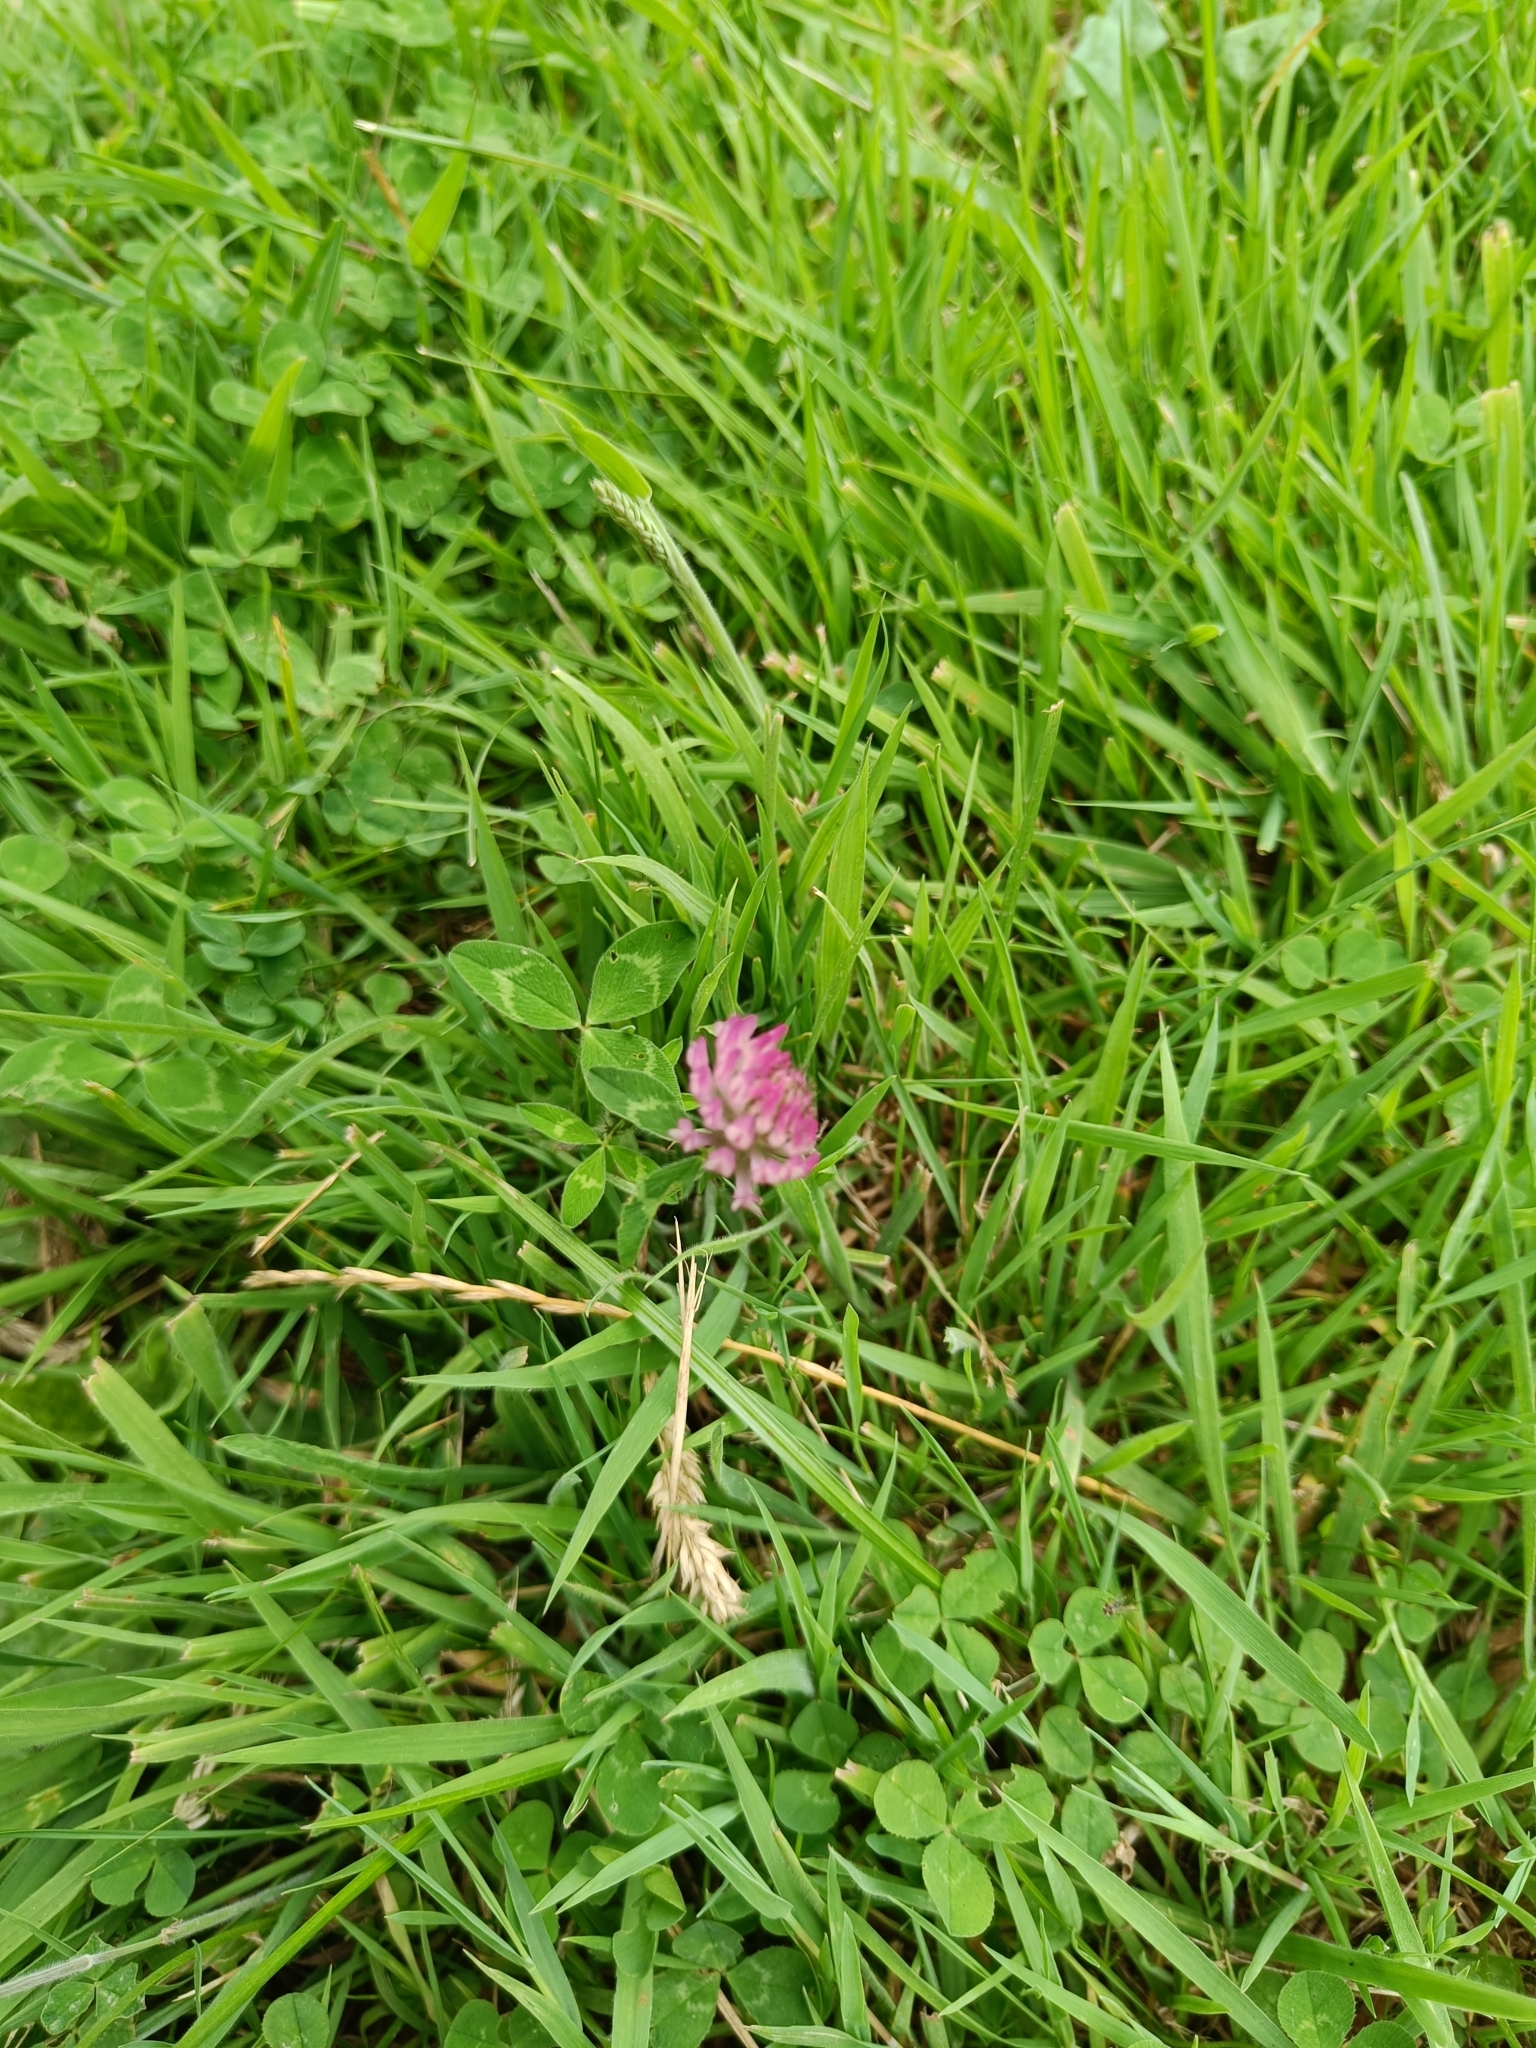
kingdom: Plantae
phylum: Tracheophyta
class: Magnoliopsida
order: Fabales
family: Fabaceae
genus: Trifolium
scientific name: Trifolium pratense
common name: Red clover
